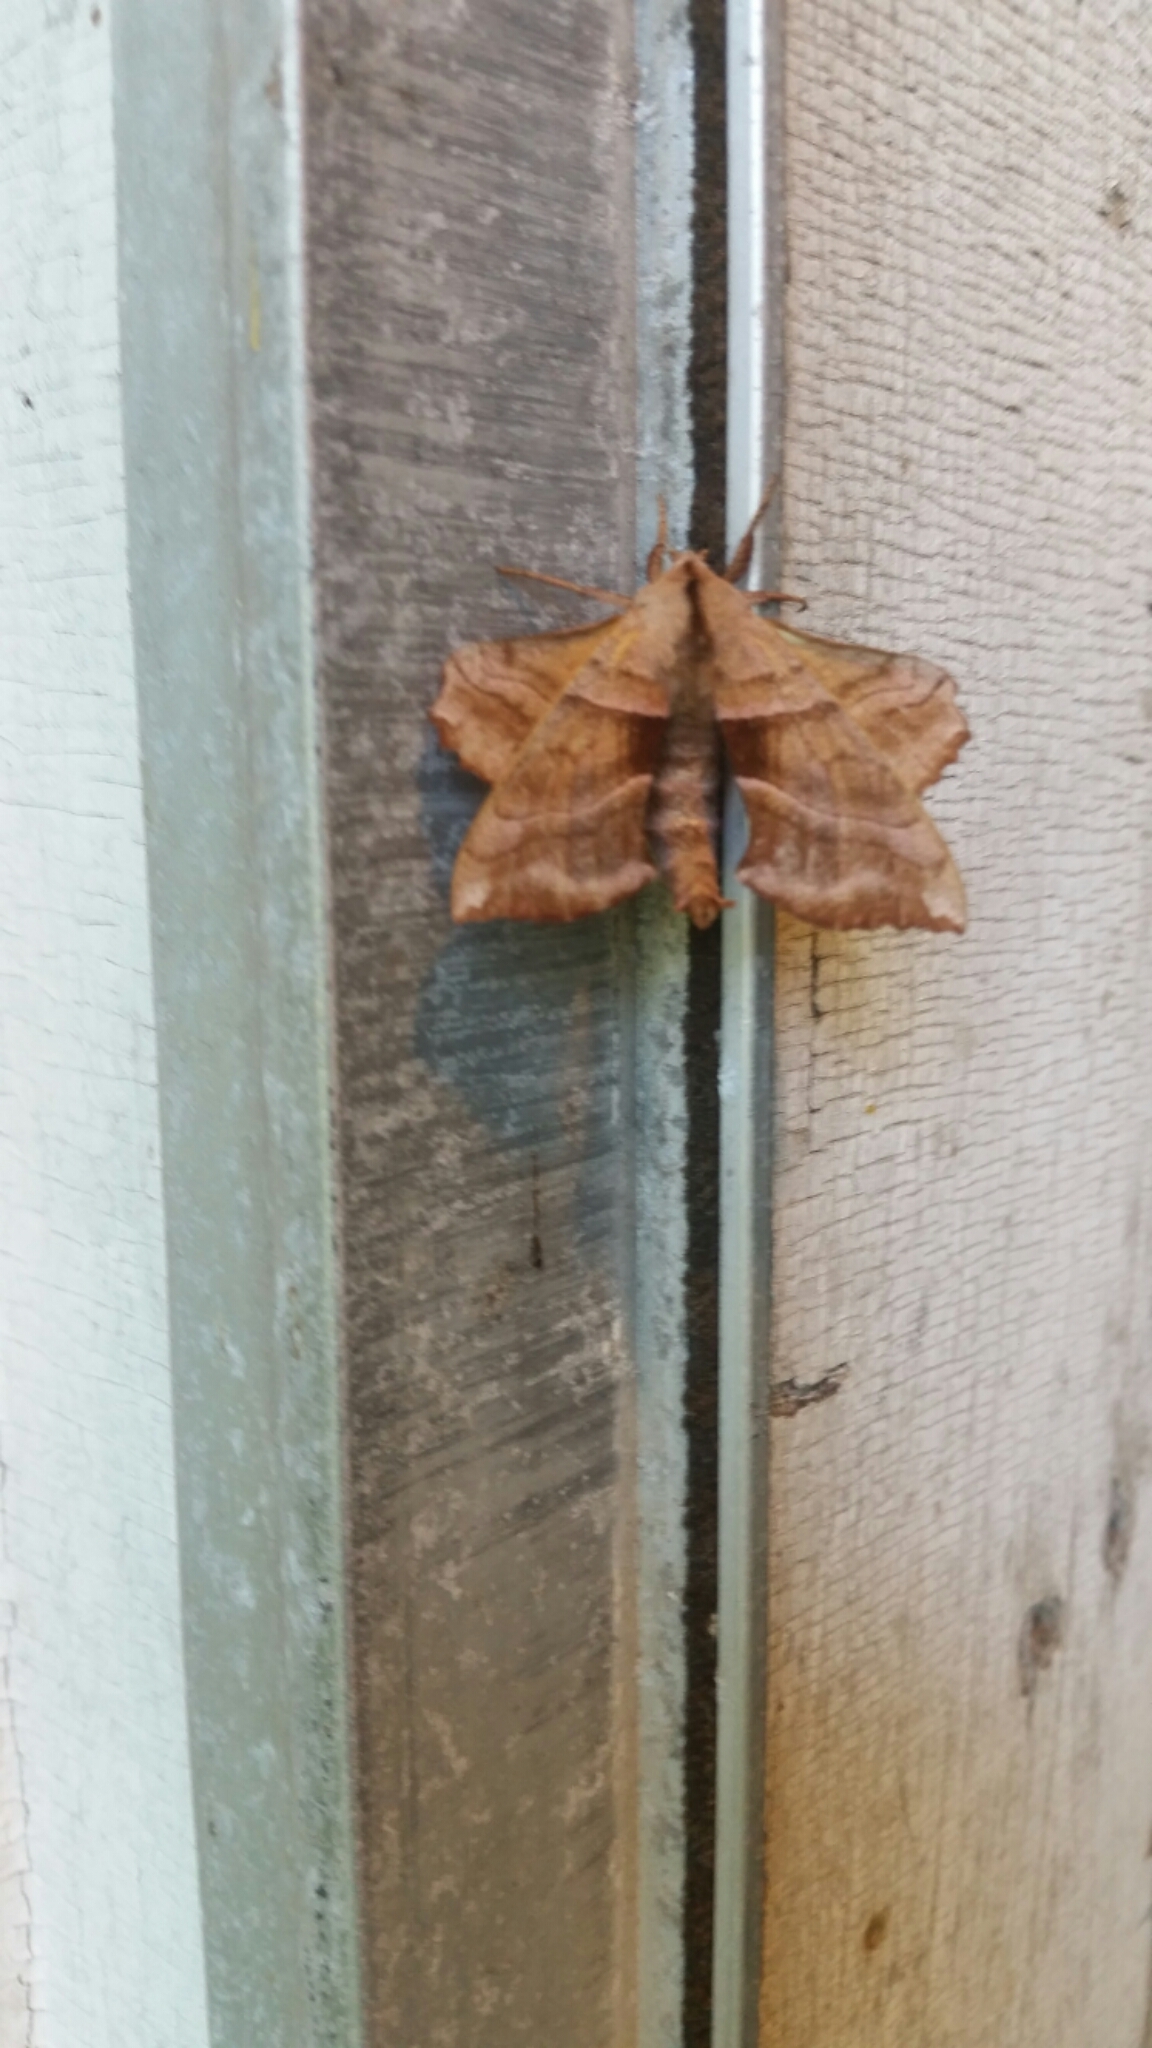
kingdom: Animalia
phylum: Arthropoda
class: Insecta
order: Lepidoptera
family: Sphingidae
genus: Amorpha
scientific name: Amorpha juglandis
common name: Walnut sphinx
